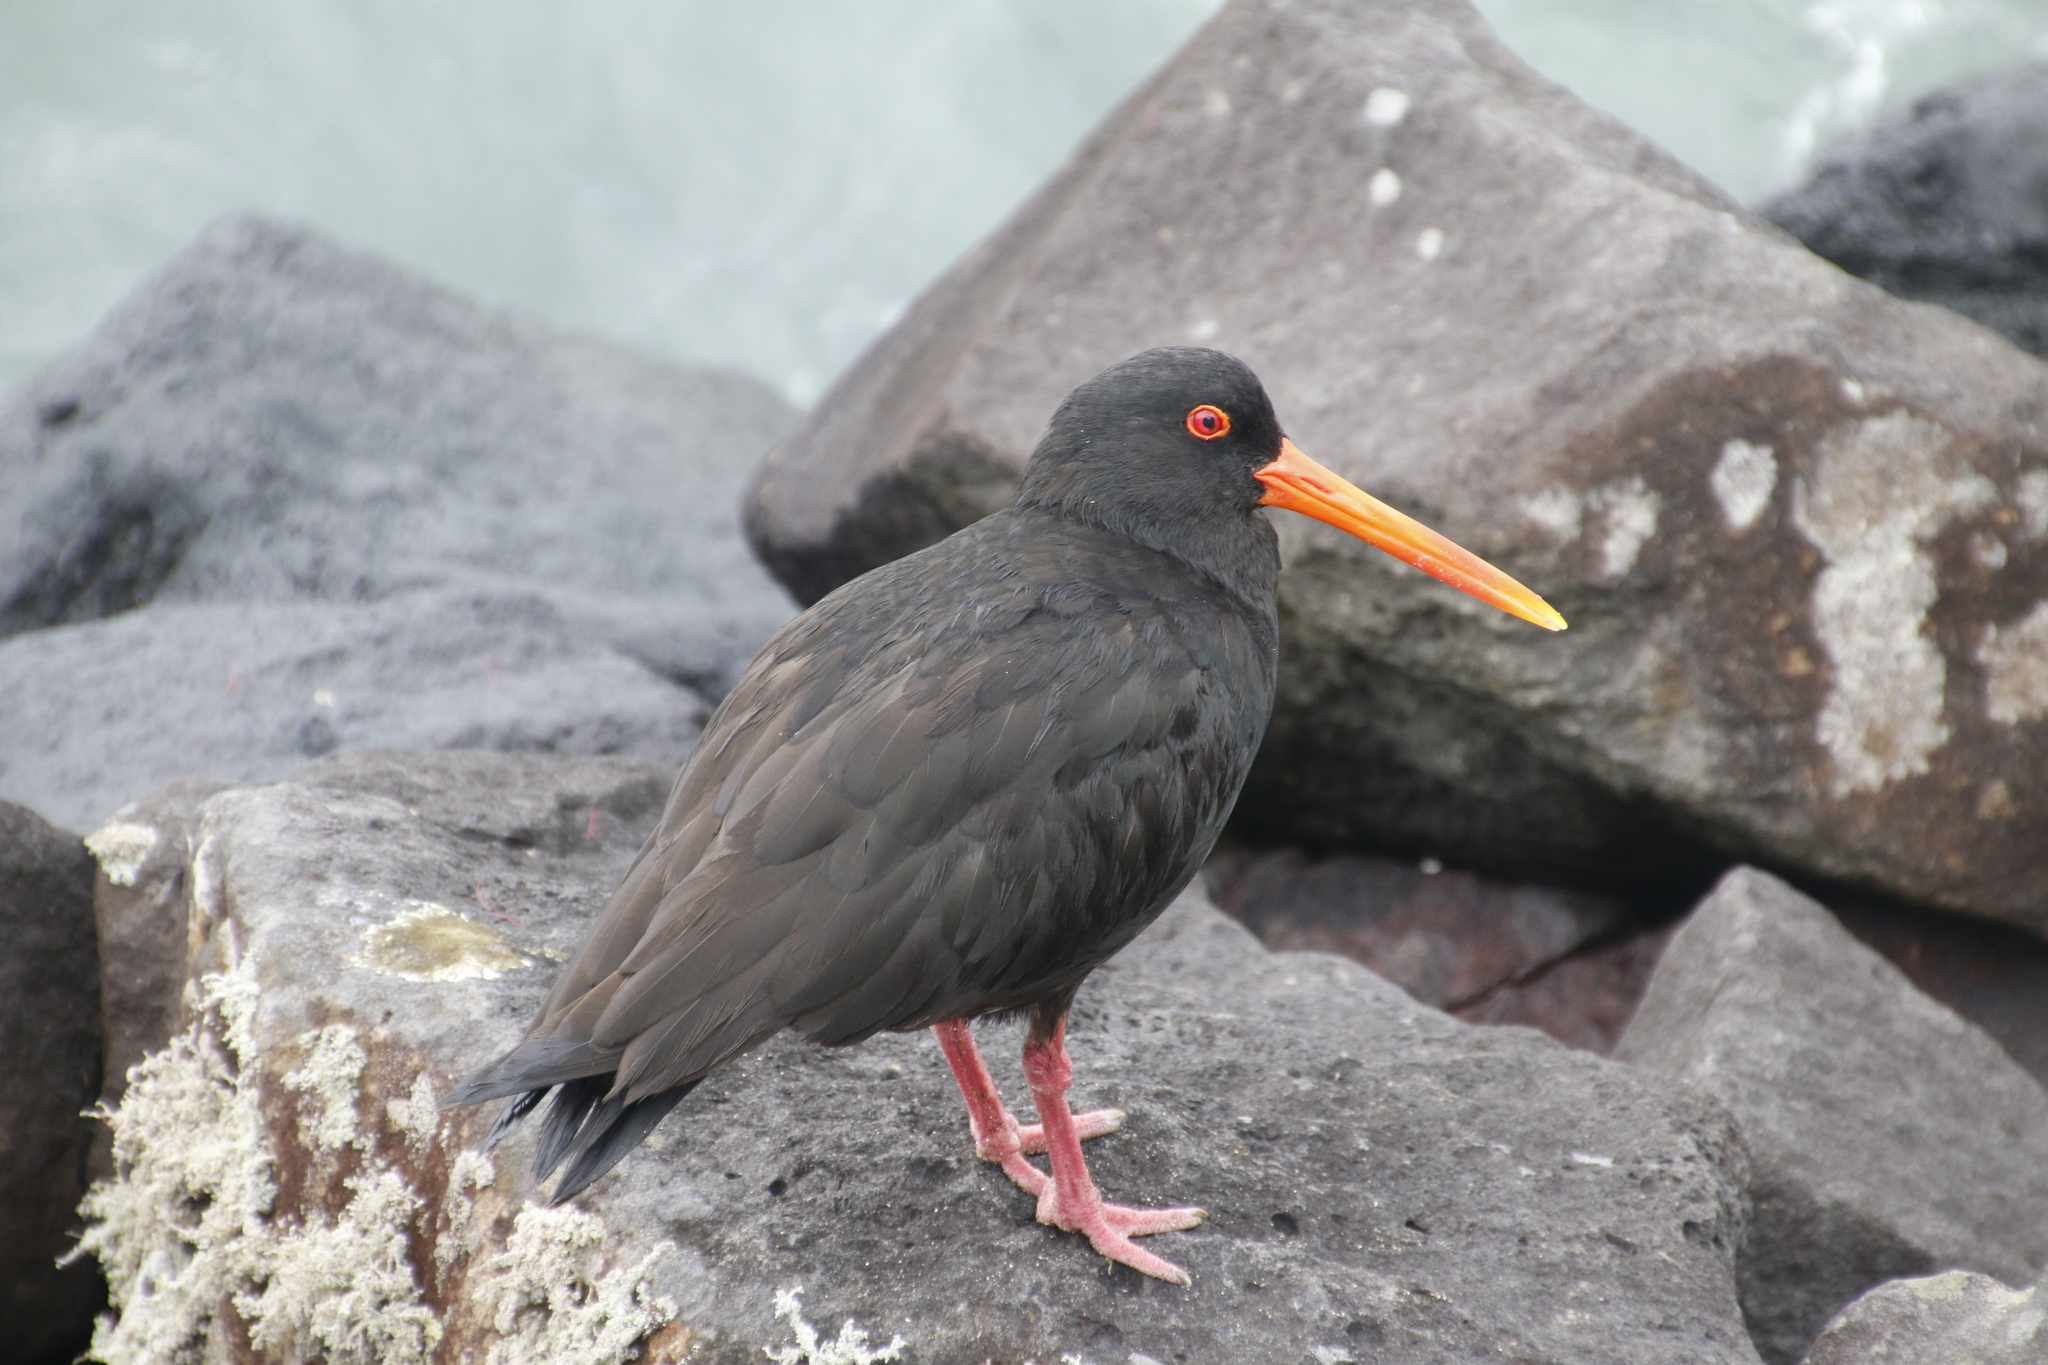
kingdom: Animalia
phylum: Chordata
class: Aves
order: Charadriiformes
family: Haematopodidae
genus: Haematopus
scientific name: Haematopus unicolor
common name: Variable oystercatcher
